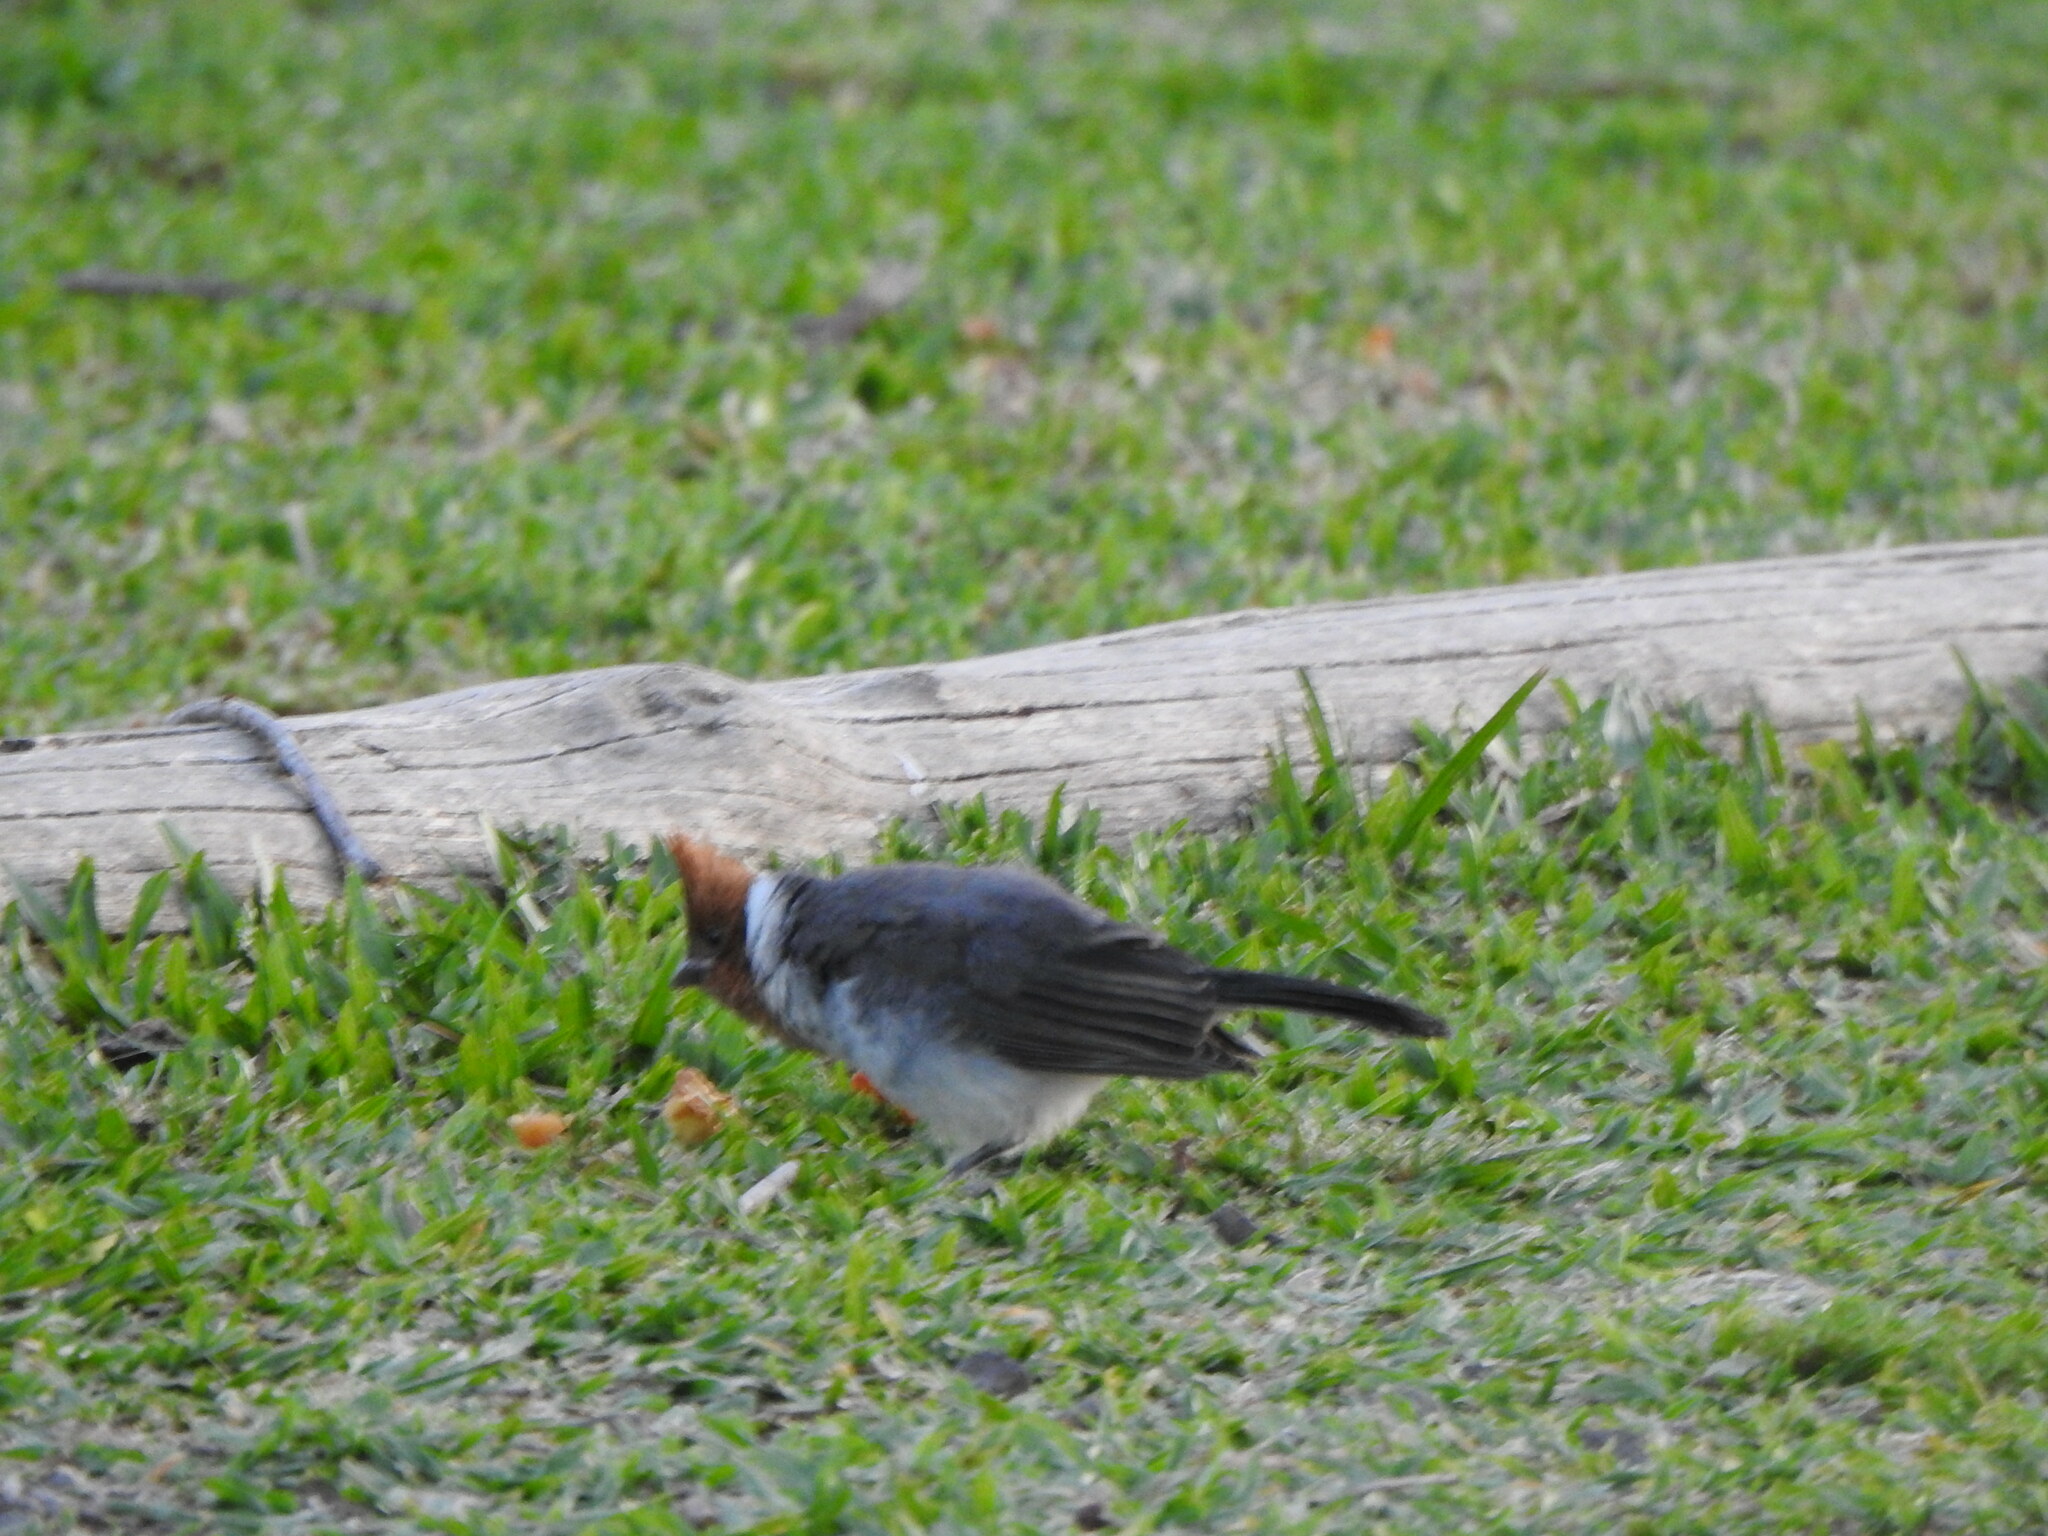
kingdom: Animalia
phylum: Chordata
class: Aves
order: Passeriformes
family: Thraupidae
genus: Paroaria
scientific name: Paroaria coronata
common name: Red-crested cardinal
